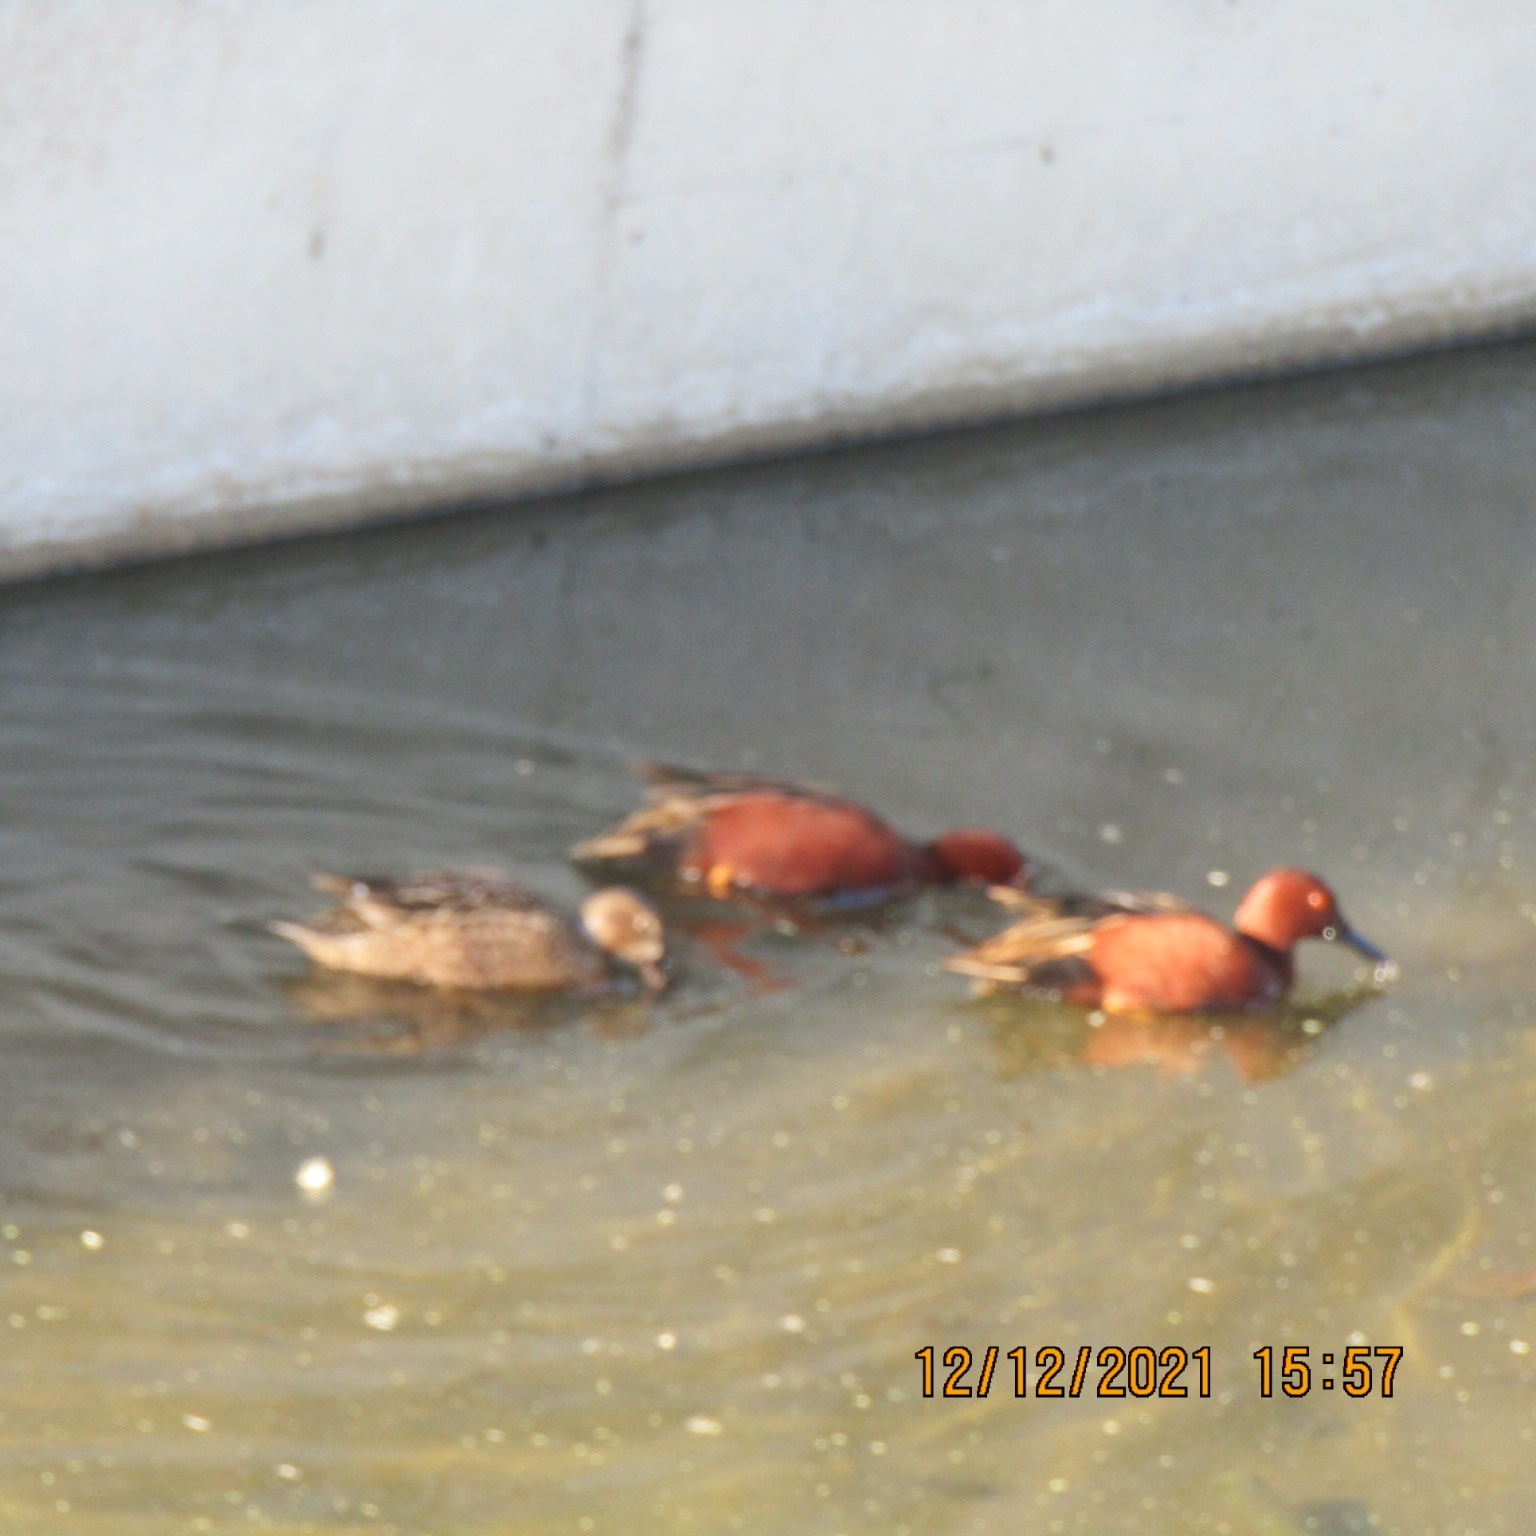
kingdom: Animalia
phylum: Chordata
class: Aves
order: Anseriformes
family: Anatidae
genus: Spatula
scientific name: Spatula cyanoptera
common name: Cinnamon teal
